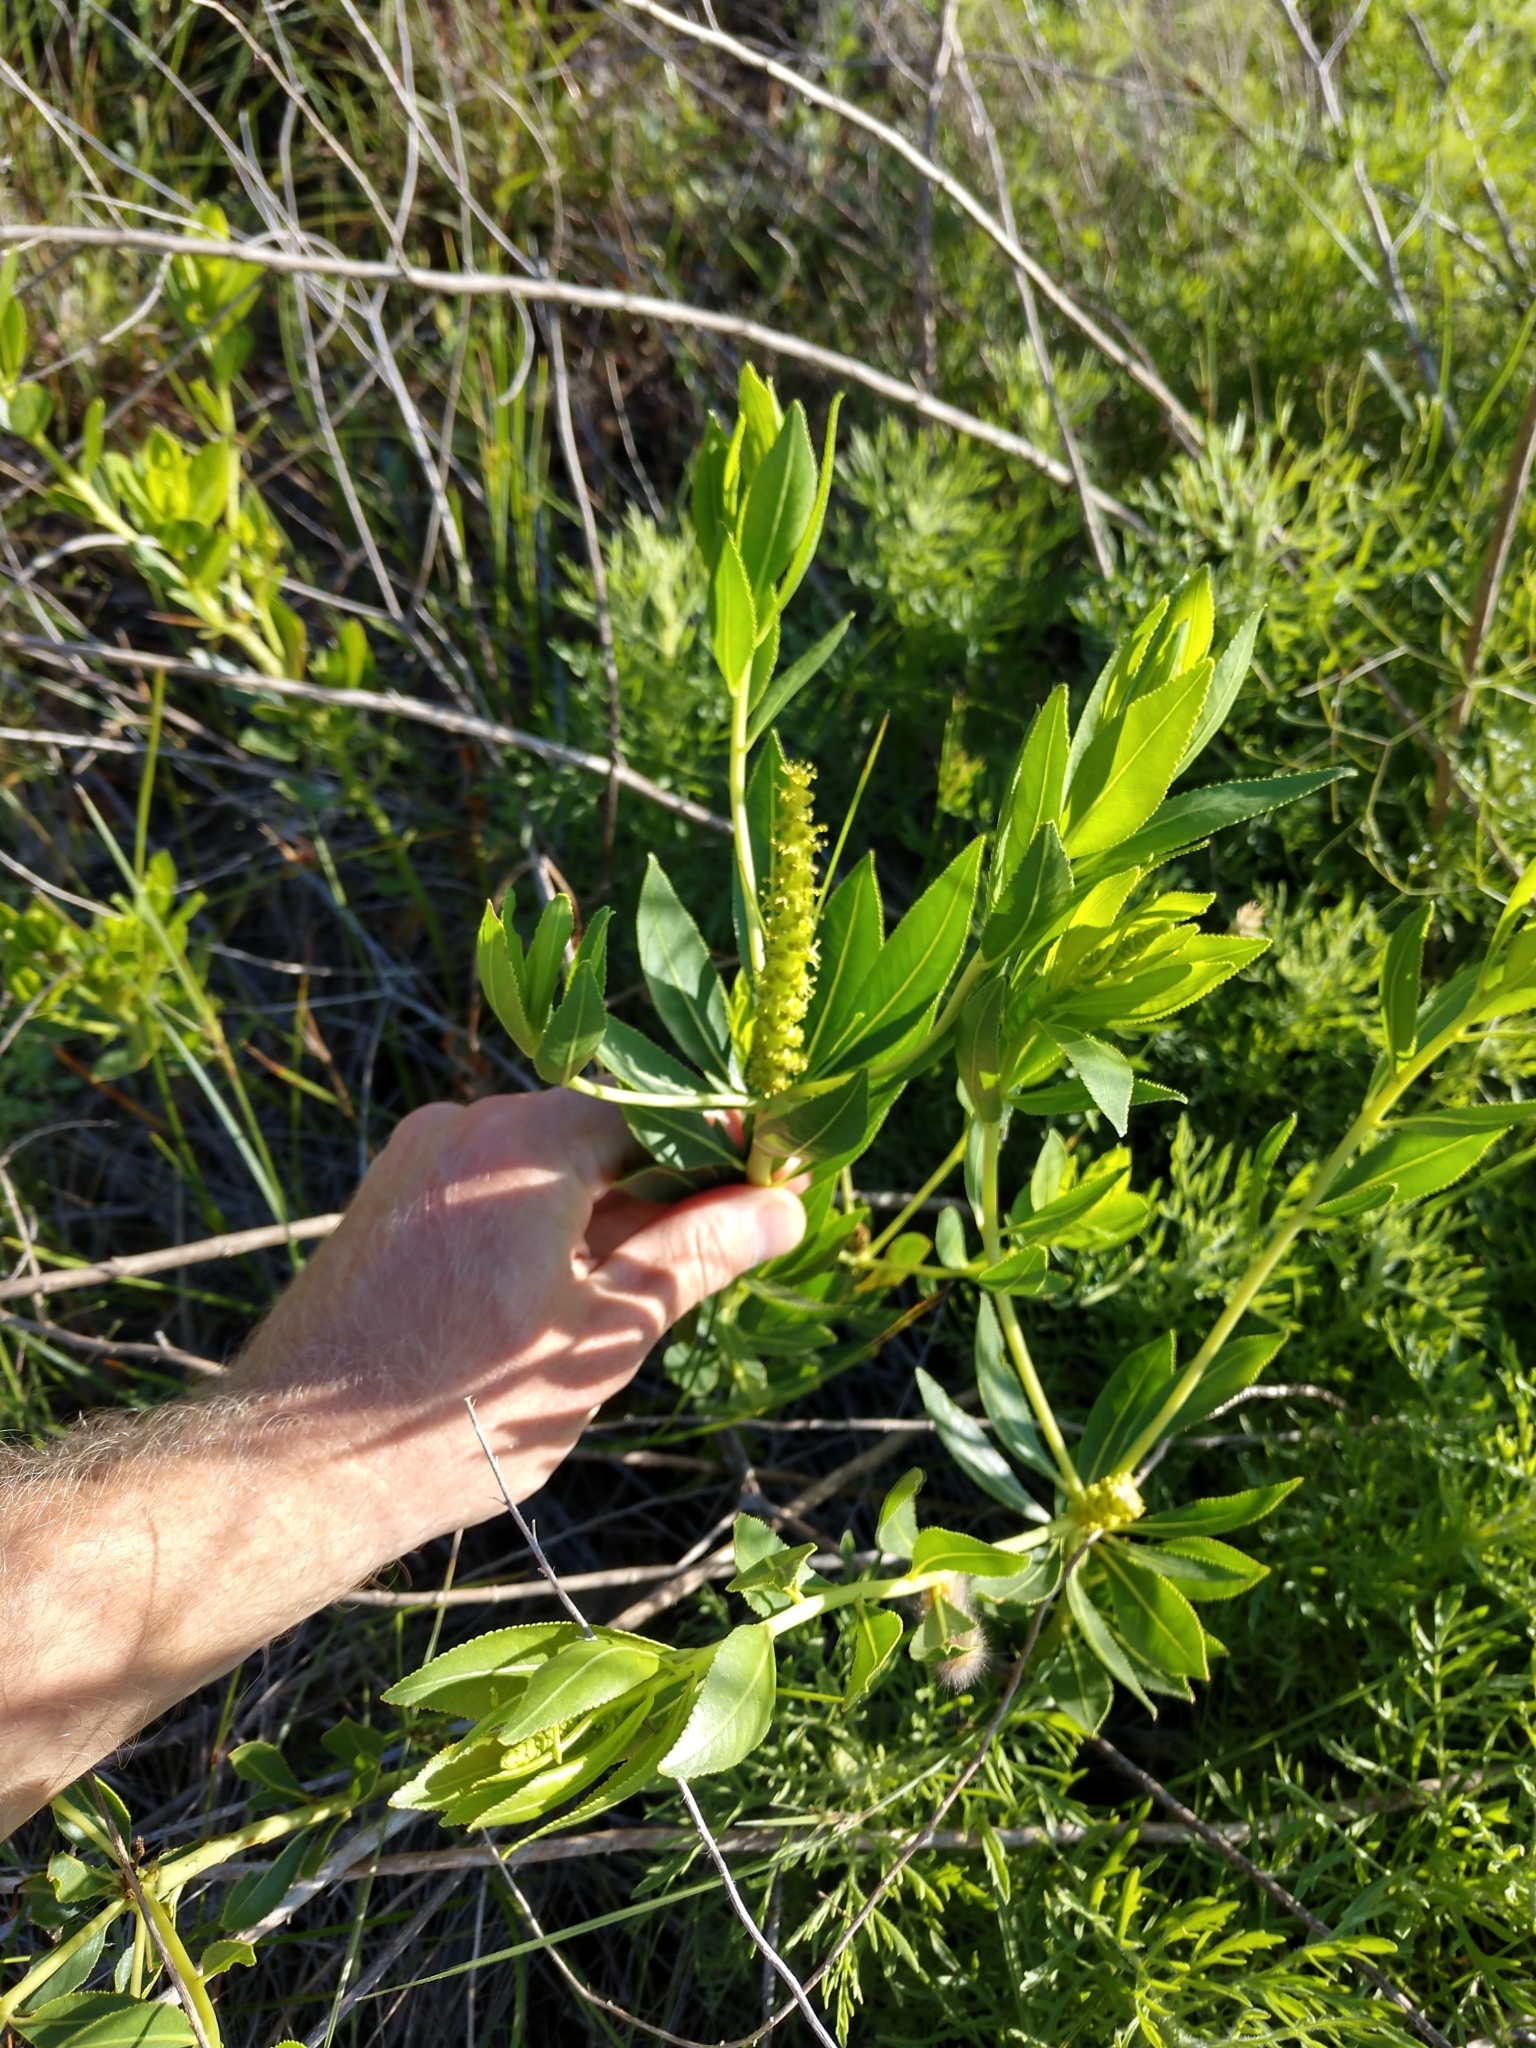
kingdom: Plantae
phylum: Tracheophyta
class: Magnoliopsida
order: Malpighiales
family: Euphorbiaceae
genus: Stillingia
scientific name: Stillingia sylvatica
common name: Queen's-delight
